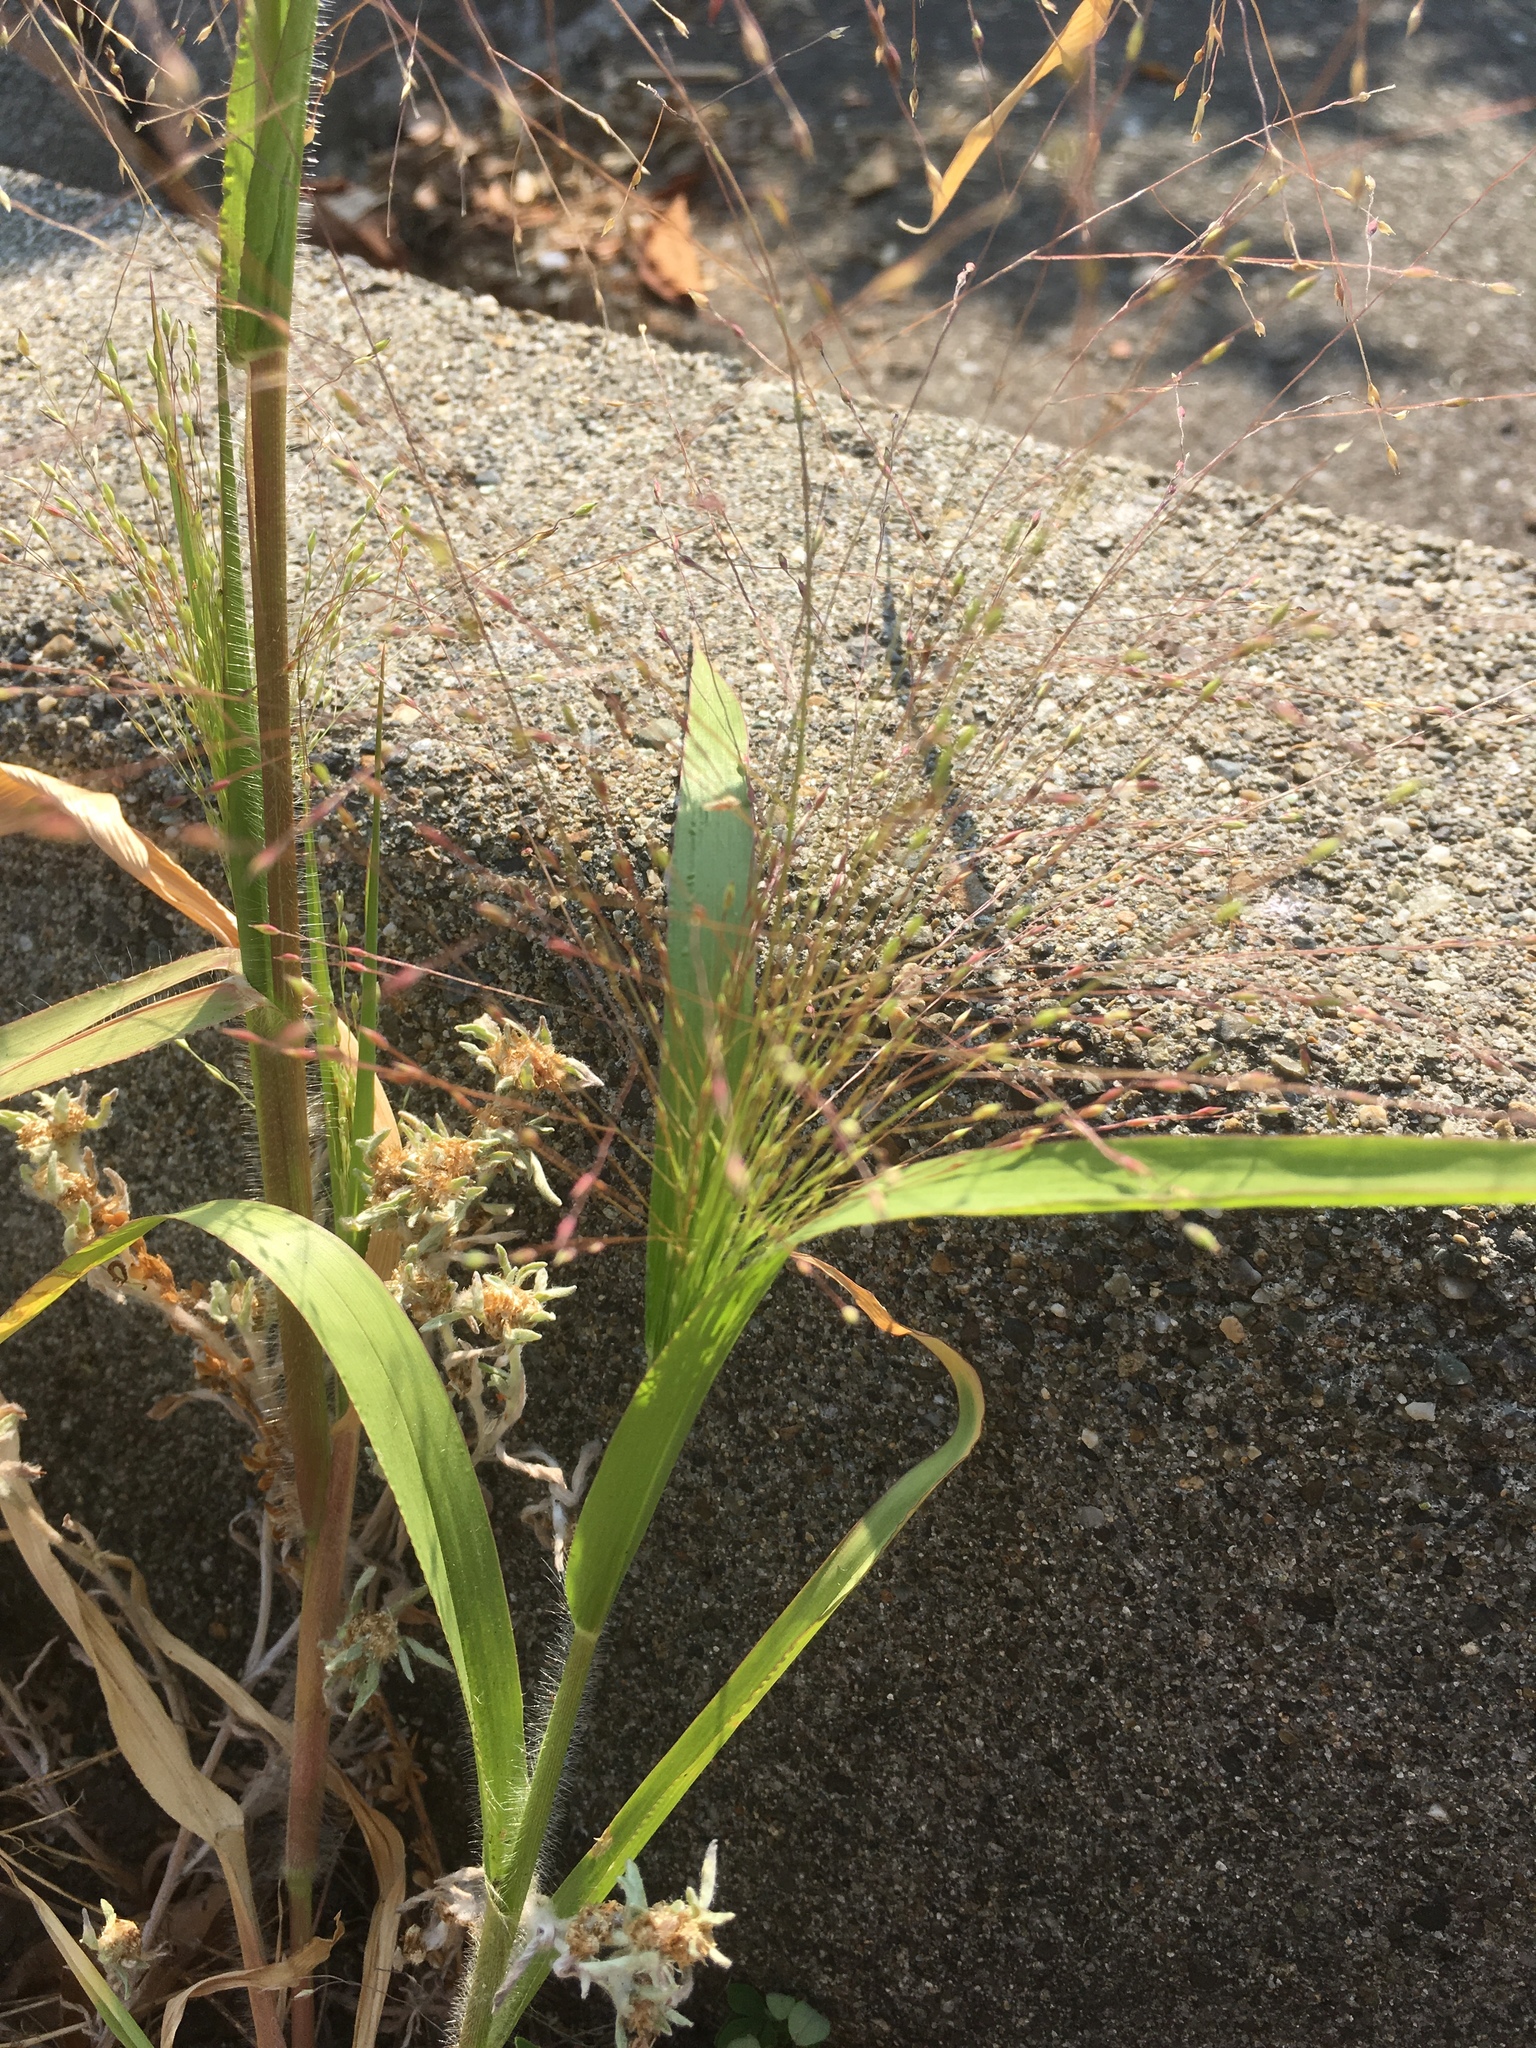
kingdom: Plantae
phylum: Tracheophyta
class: Liliopsida
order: Poales
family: Poaceae
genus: Panicum
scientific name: Panicum capillare
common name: Witch-grass
